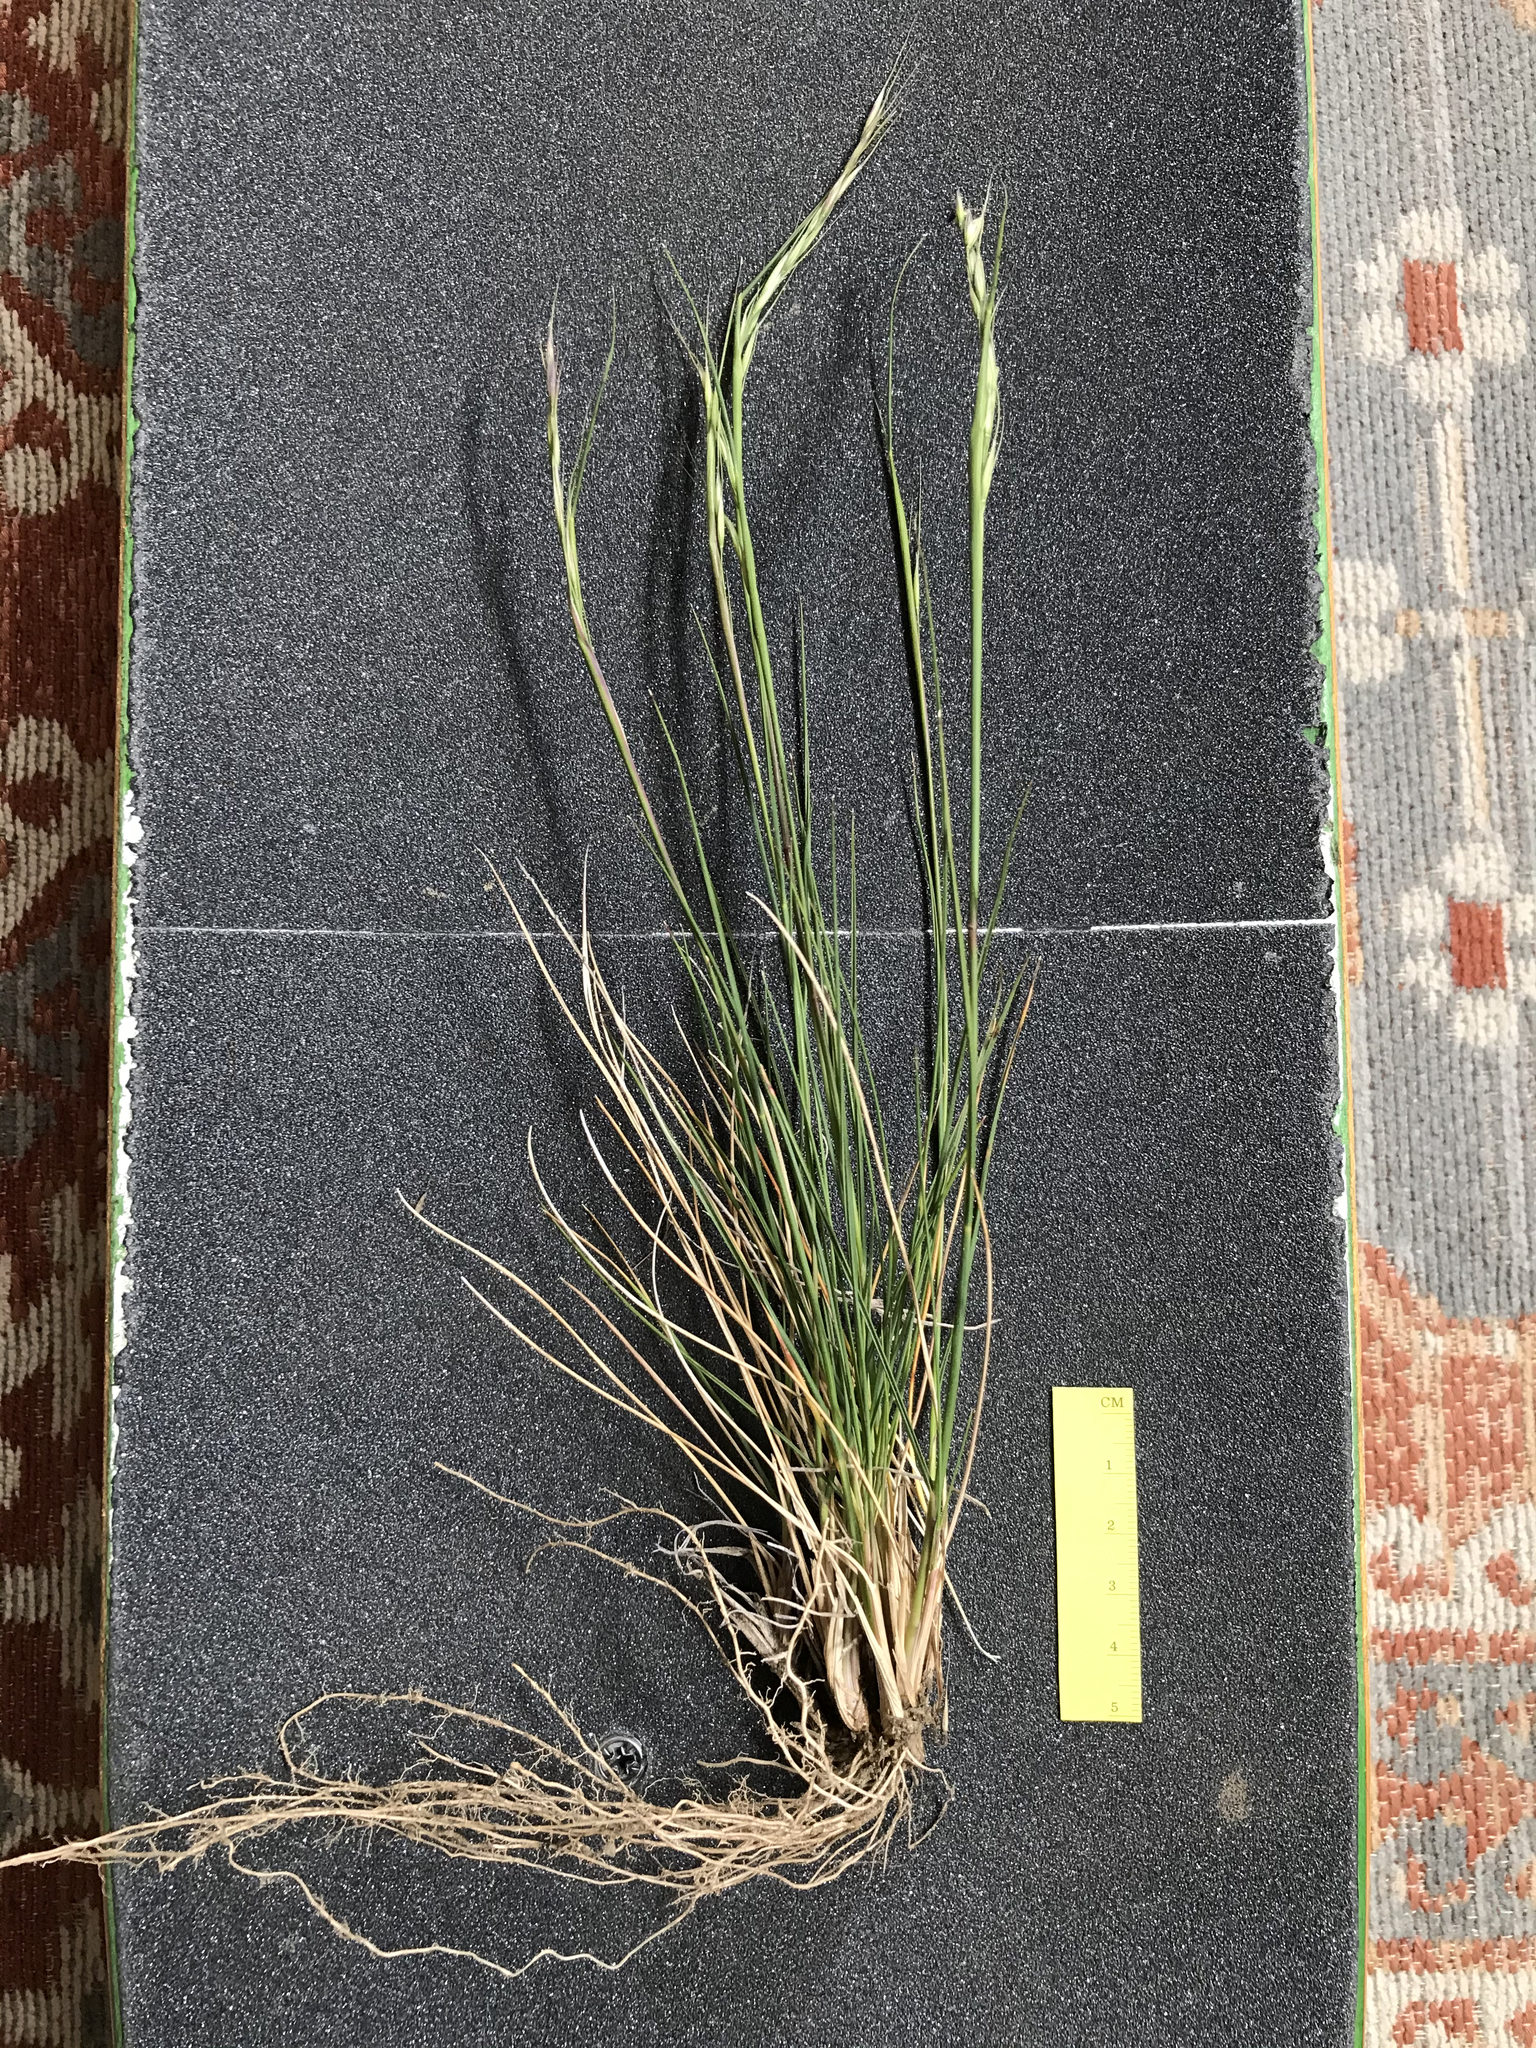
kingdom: Plantae
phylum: Tracheophyta
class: Liliopsida
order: Poales
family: Poaceae
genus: Eriocoma
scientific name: Eriocoma lemmonii
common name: Lemmon's needlegrass
